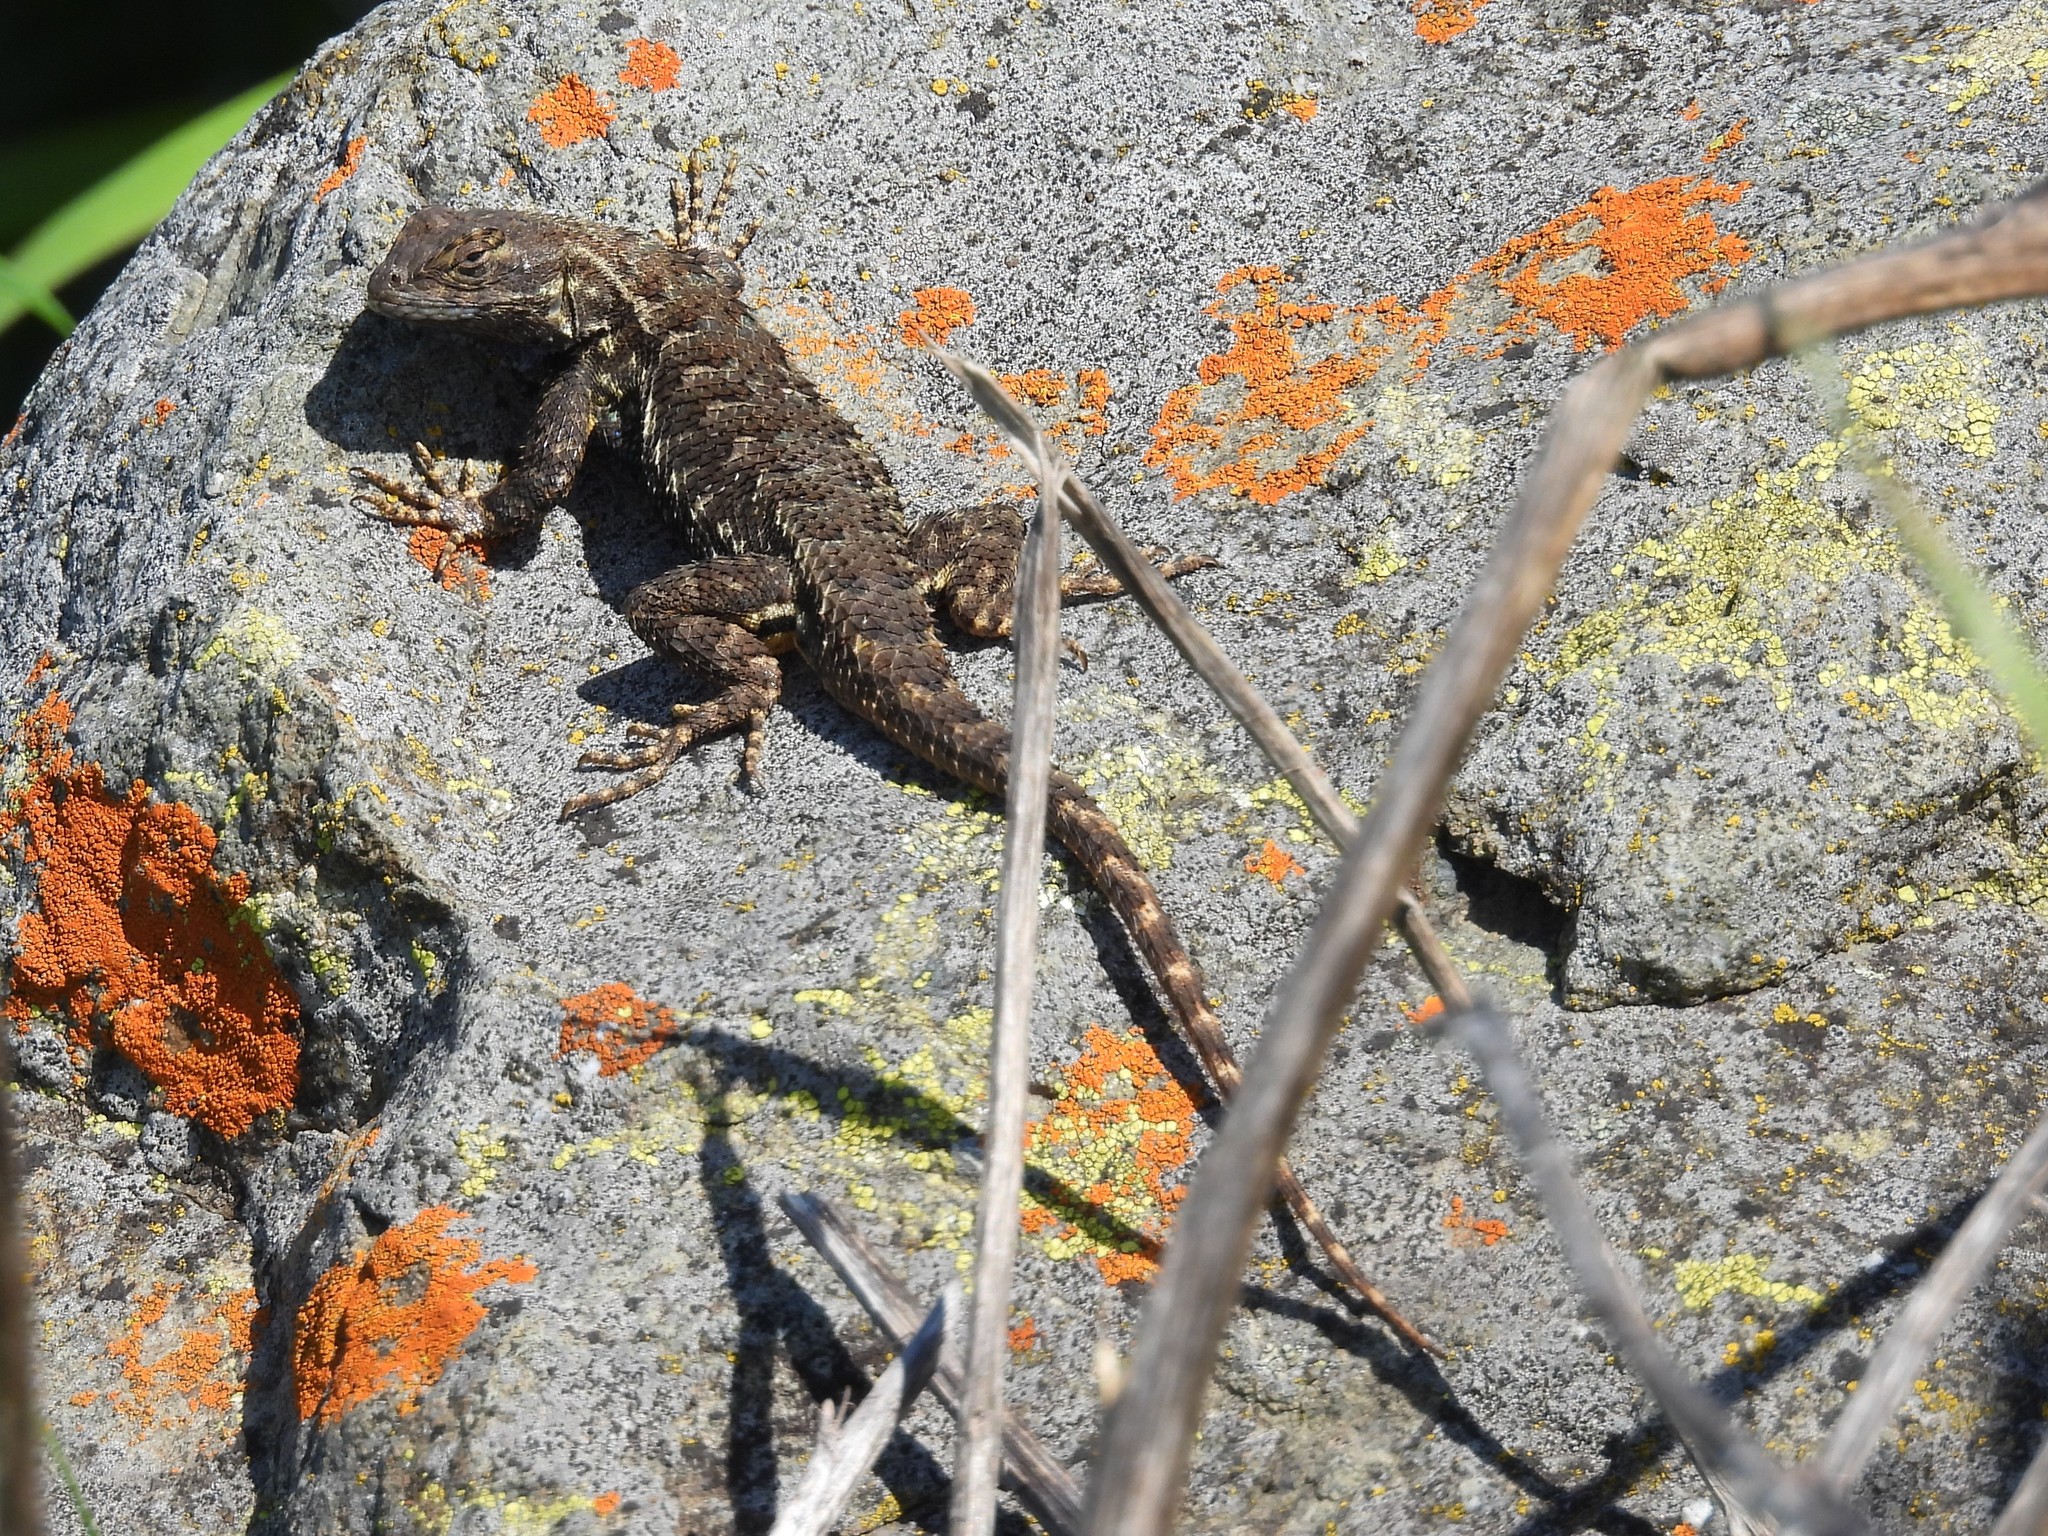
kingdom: Animalia
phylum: Chordata
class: Squamata
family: Phrynosomatidae
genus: Sceloporus
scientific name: Sceloporus occidentalis
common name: Western fence lizard
